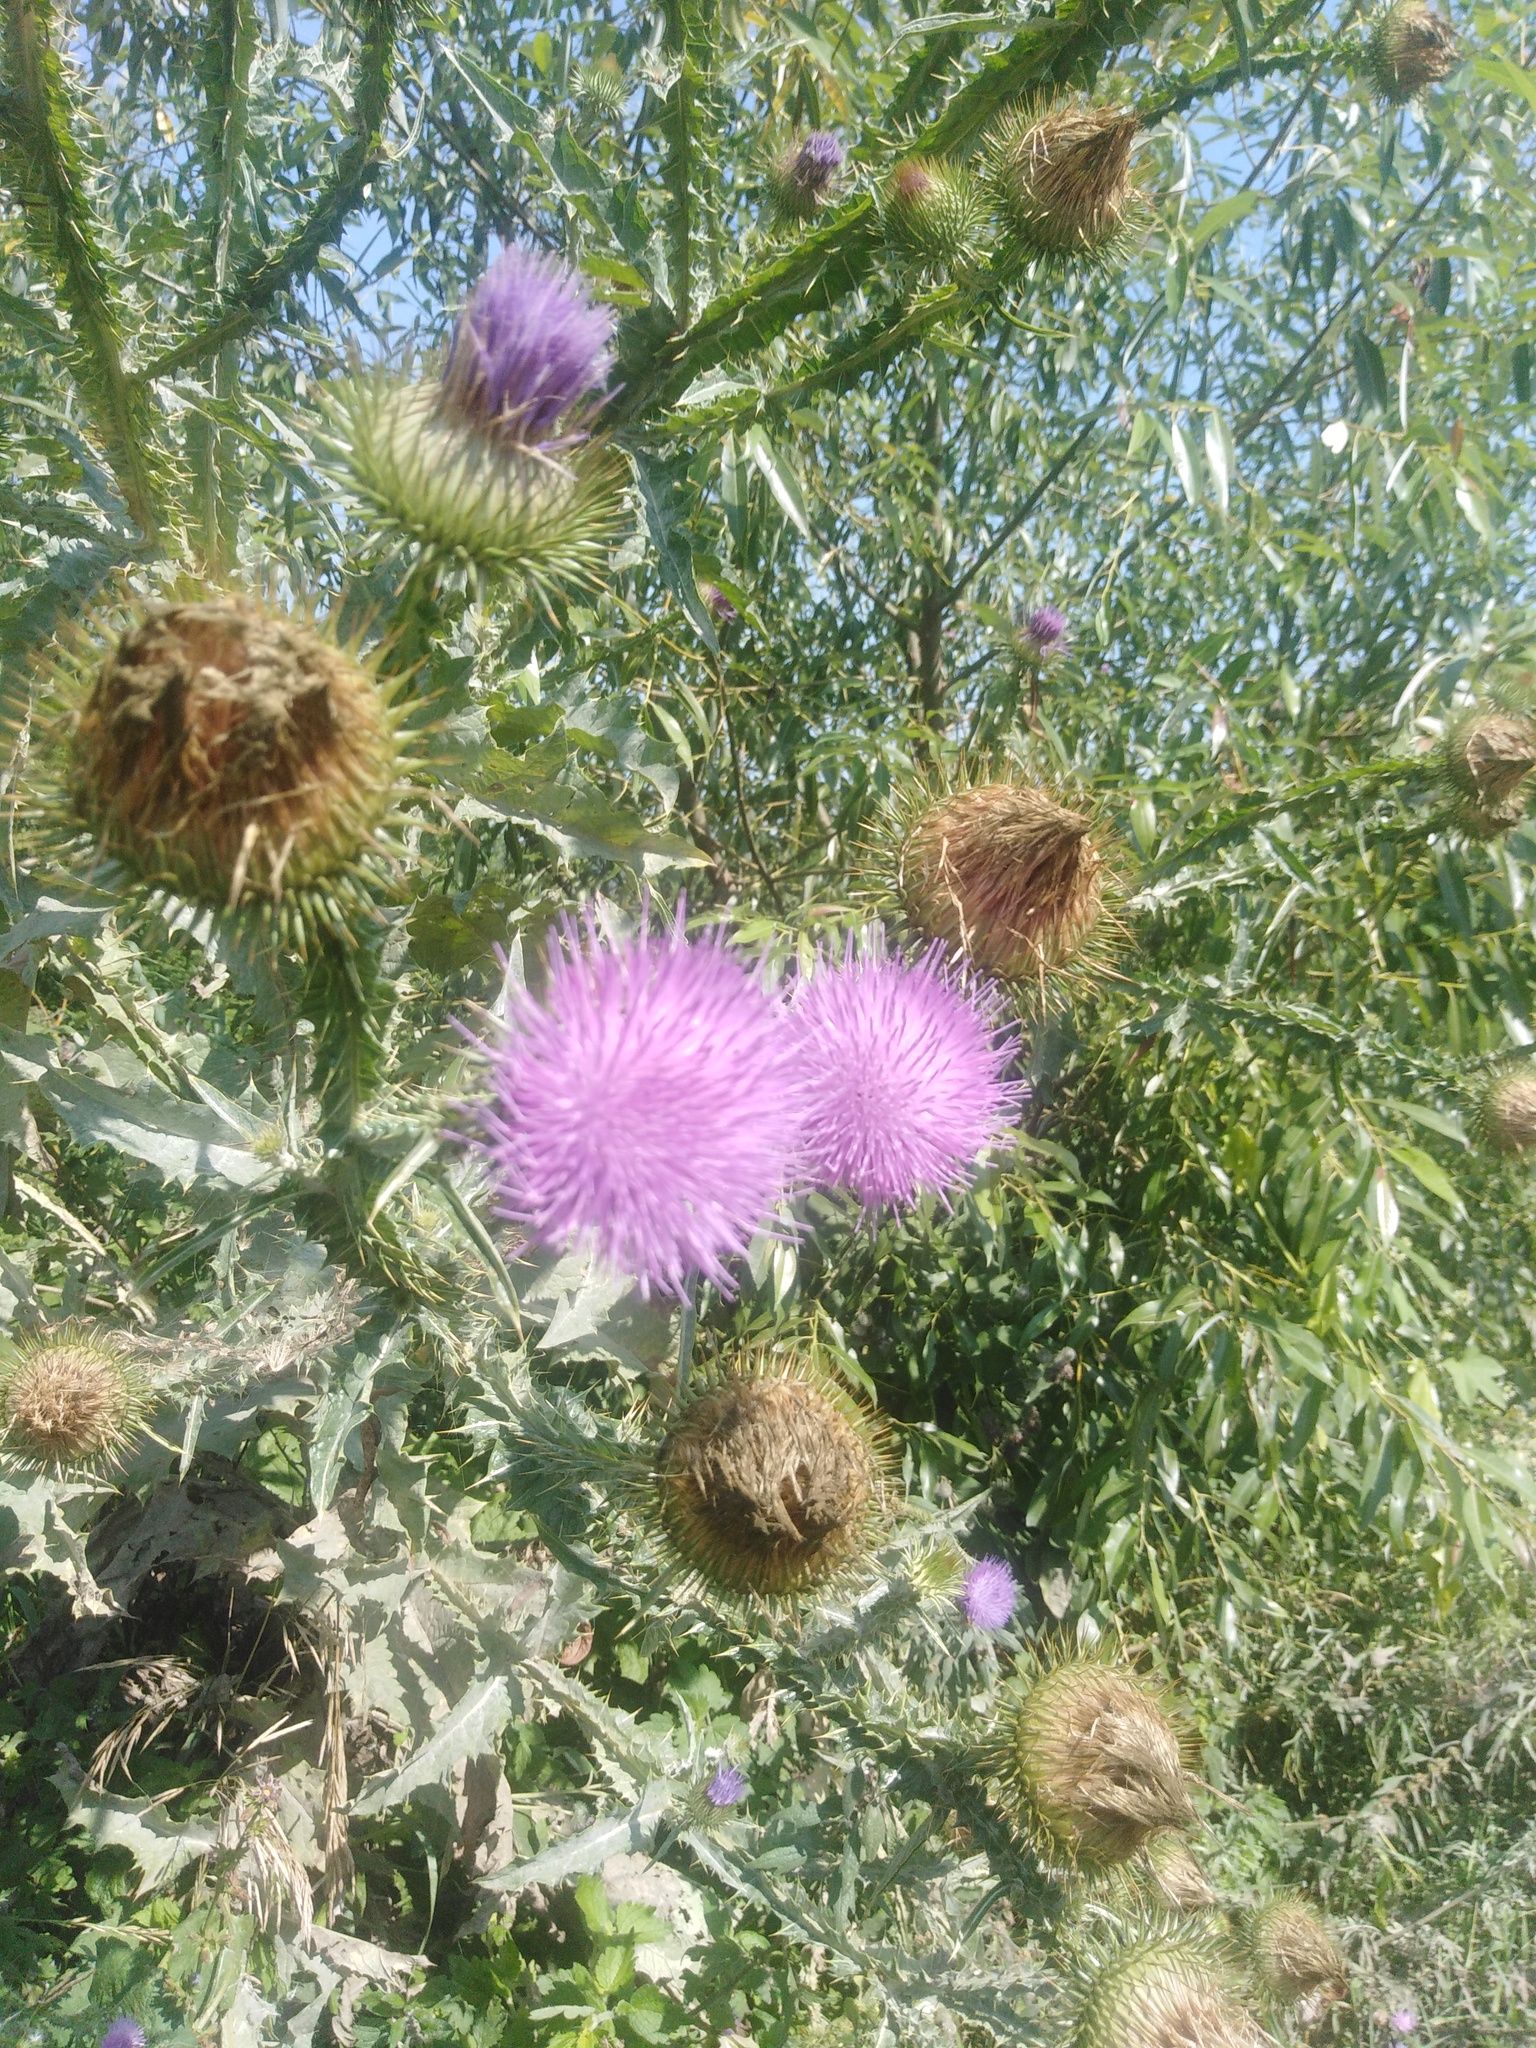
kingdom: Plantae
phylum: Tracheophyta
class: Magnoliopsida
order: Asterales
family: Asteraceae
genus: Onopordum
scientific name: Onopordum acanthium
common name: Scotch thistle
